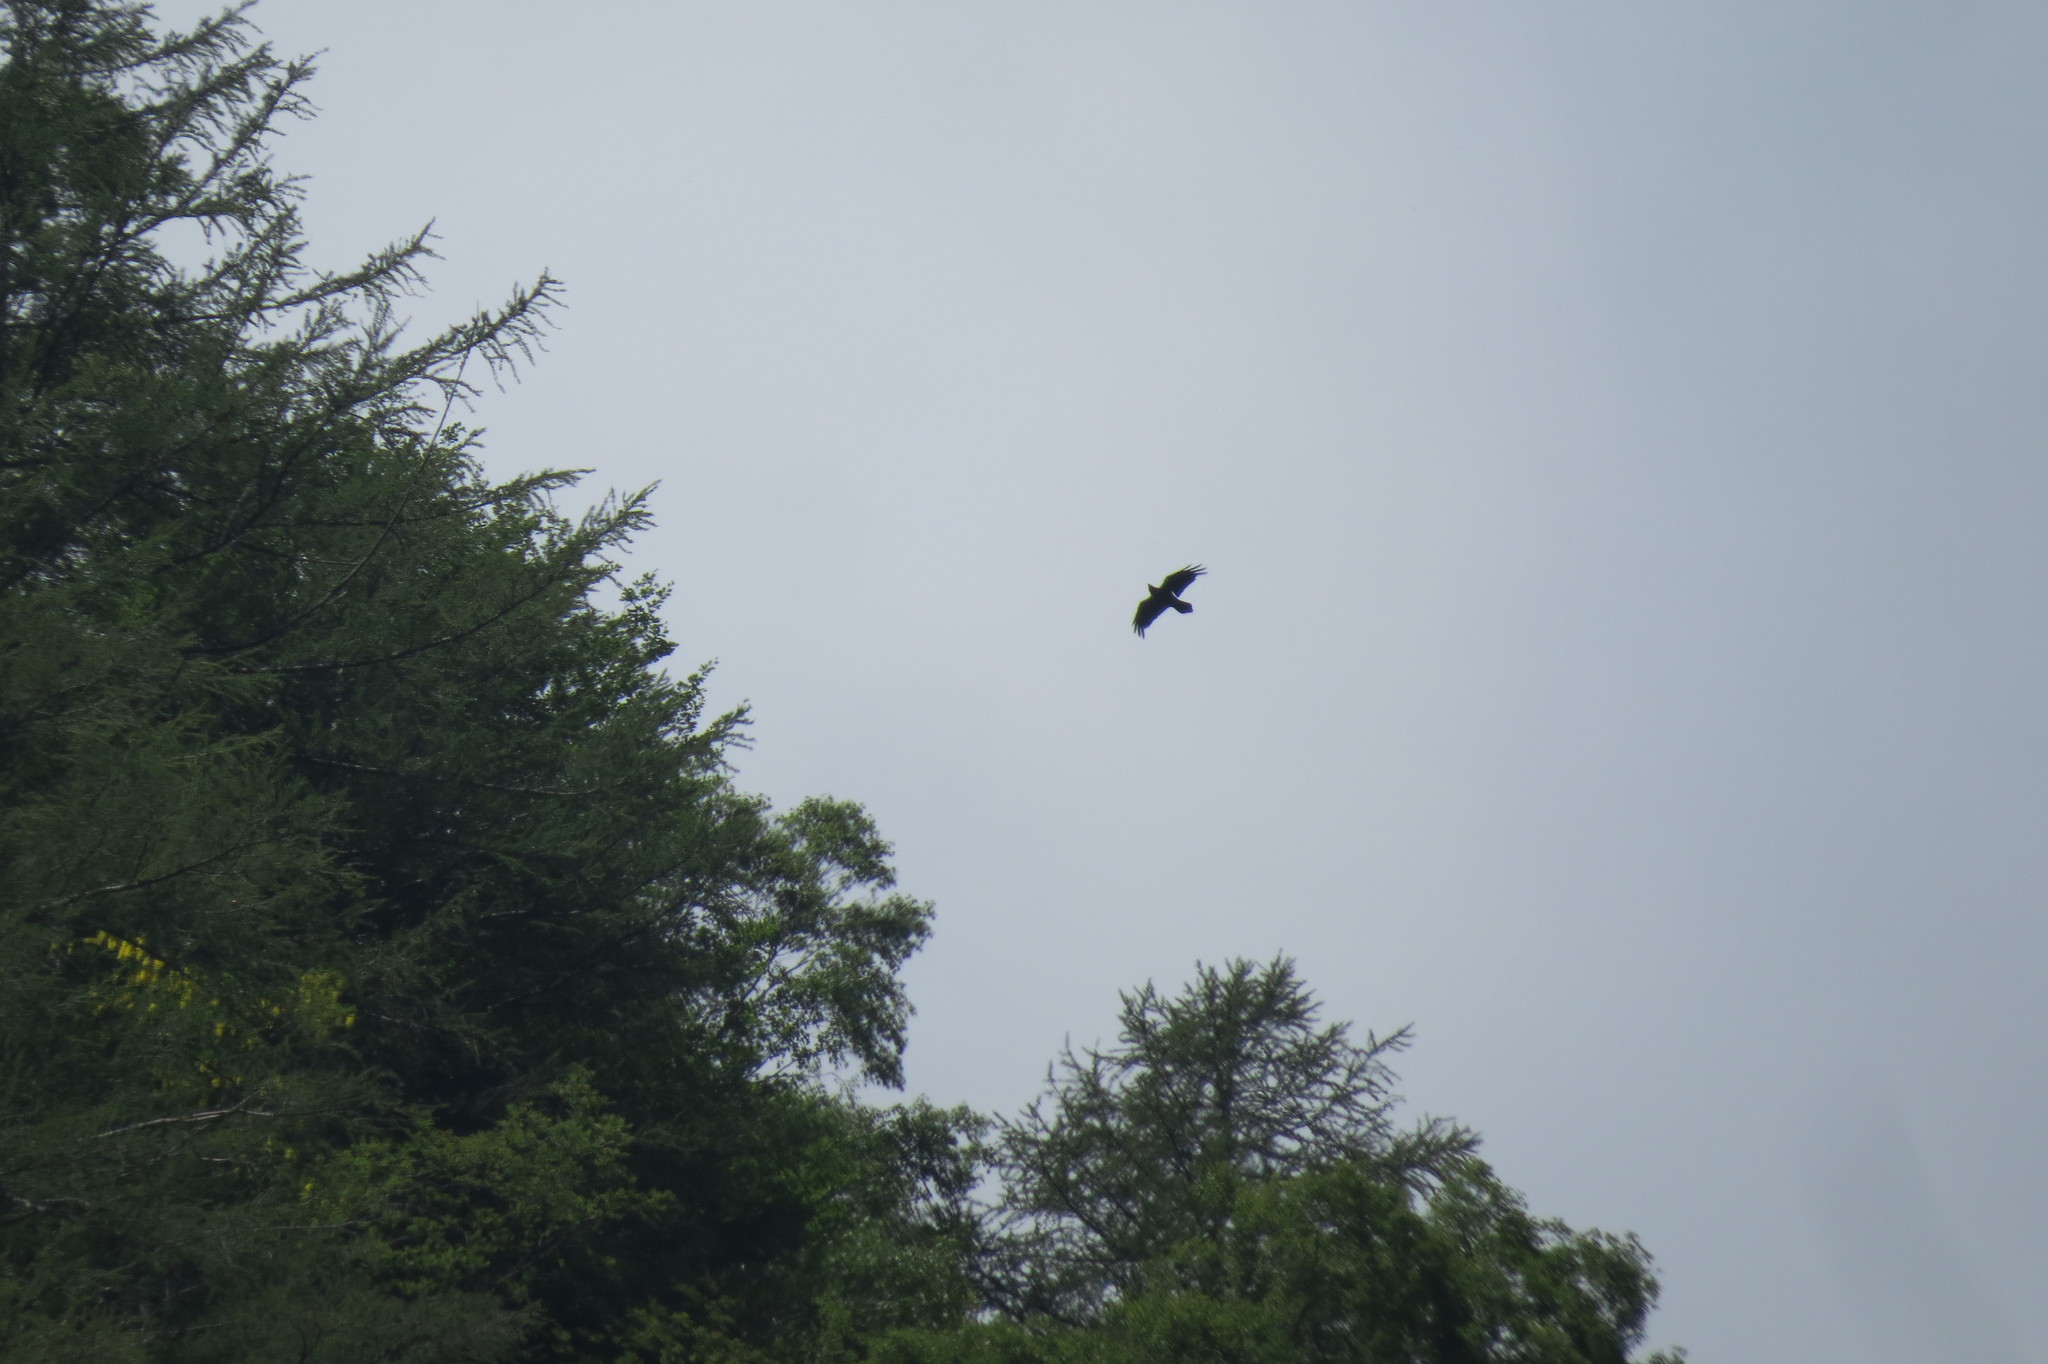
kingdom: Animalia
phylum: Chordata
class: Aves
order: Passeriformes
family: Corvidae
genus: Corvus
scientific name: Corvus corax
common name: Common raven
